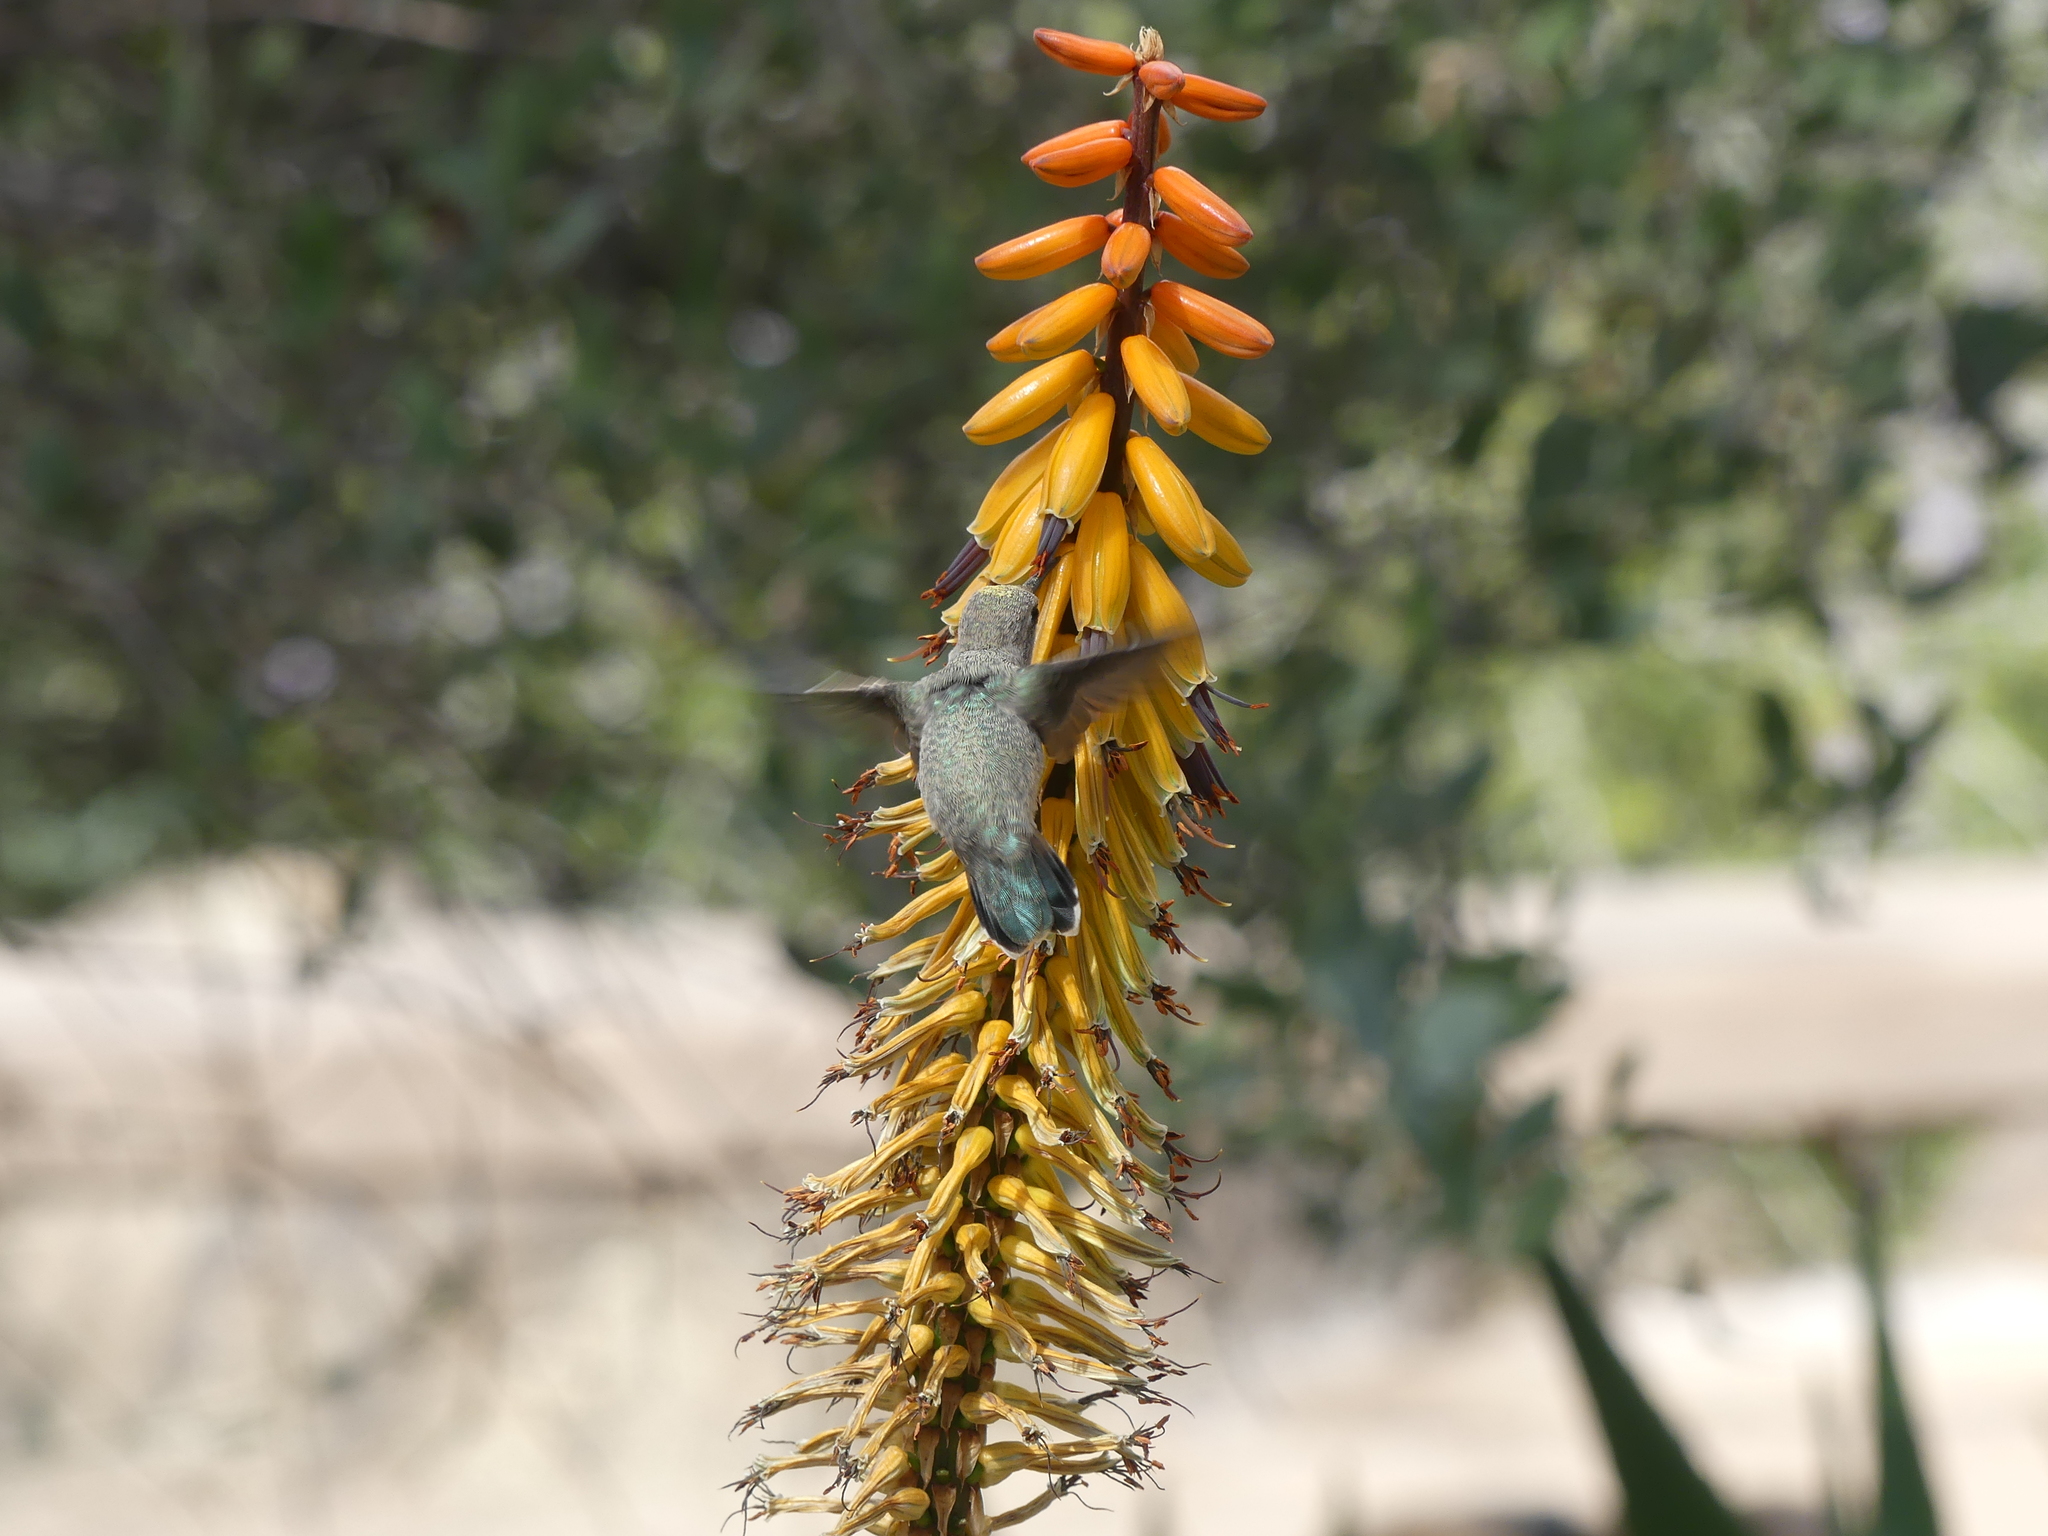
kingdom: Animalia
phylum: Chordata
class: Aves
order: Apodiformes
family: Trochilidae
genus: Calypte
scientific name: Calypte costae
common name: Costa's hummingbird
